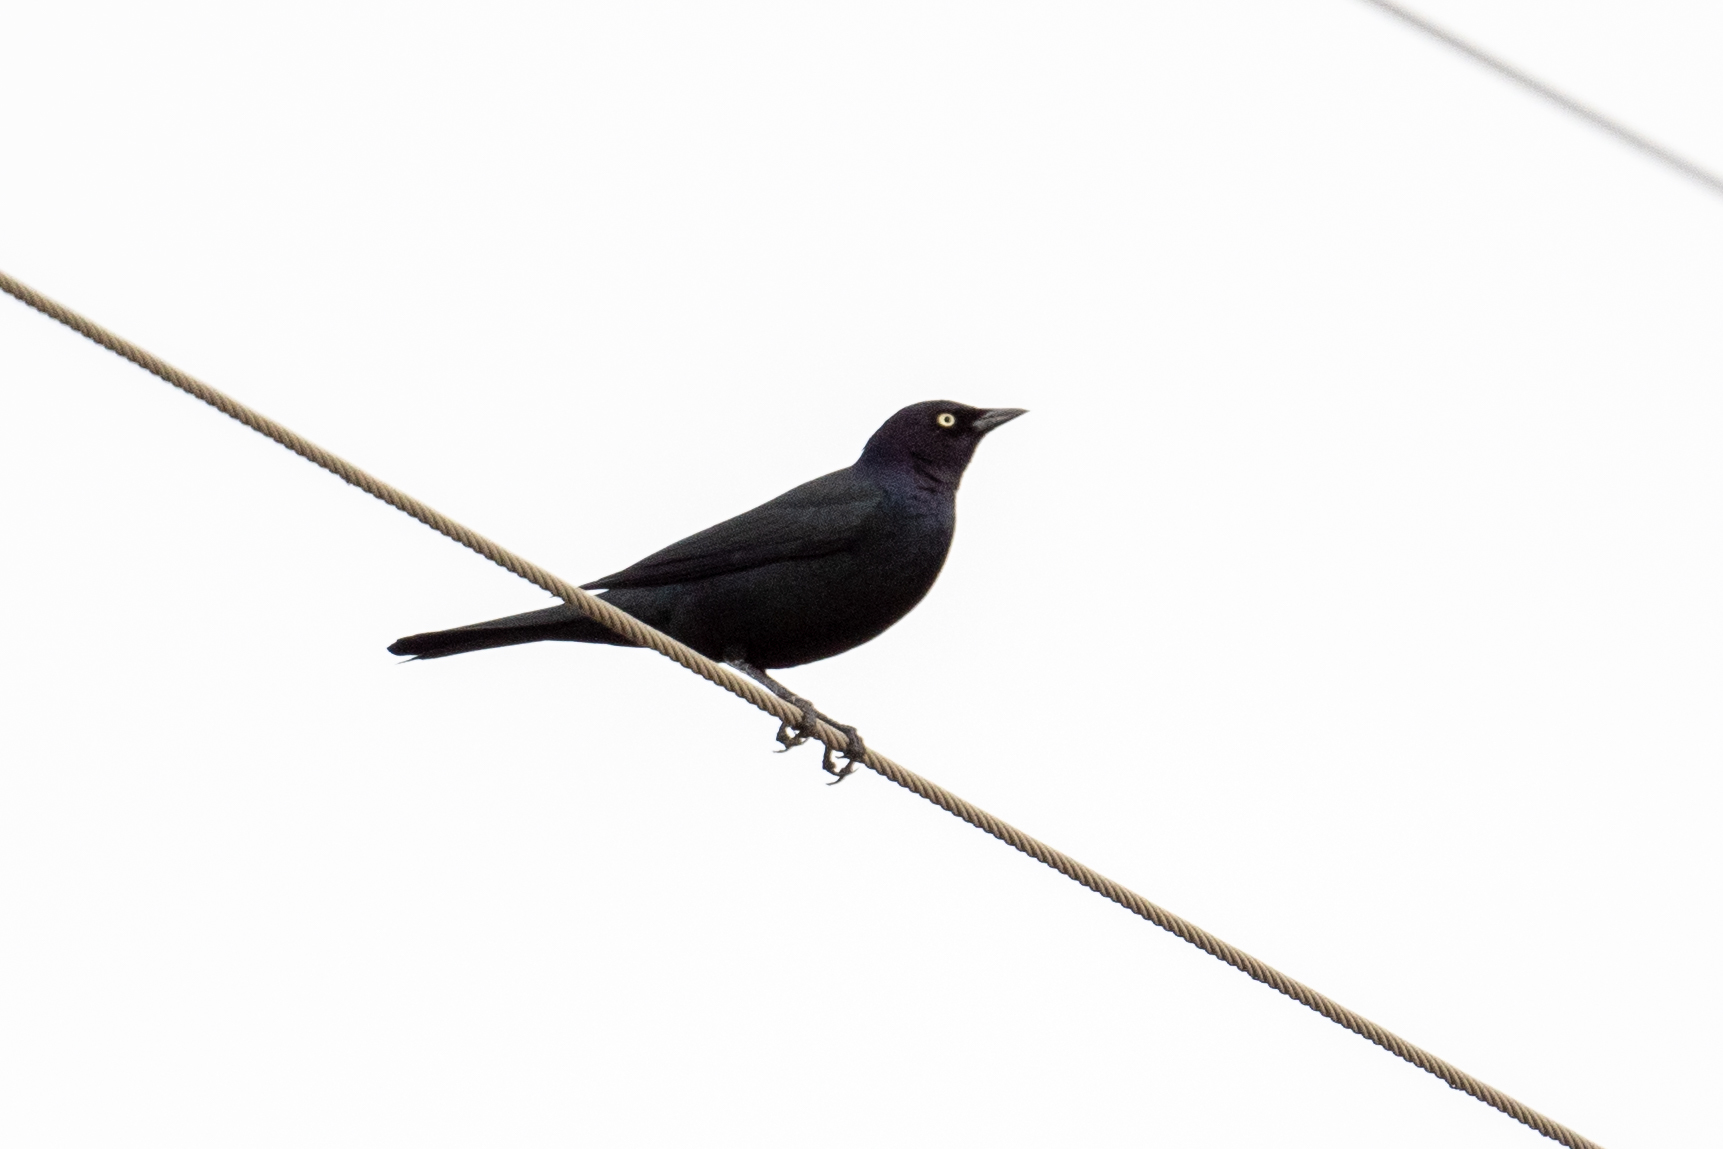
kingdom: Animalia
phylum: Chordata
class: Aves
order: Passeriformes
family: Icteridae
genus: Euphagus
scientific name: Euphagus cyanocephalus
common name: Brewer's blackbird
